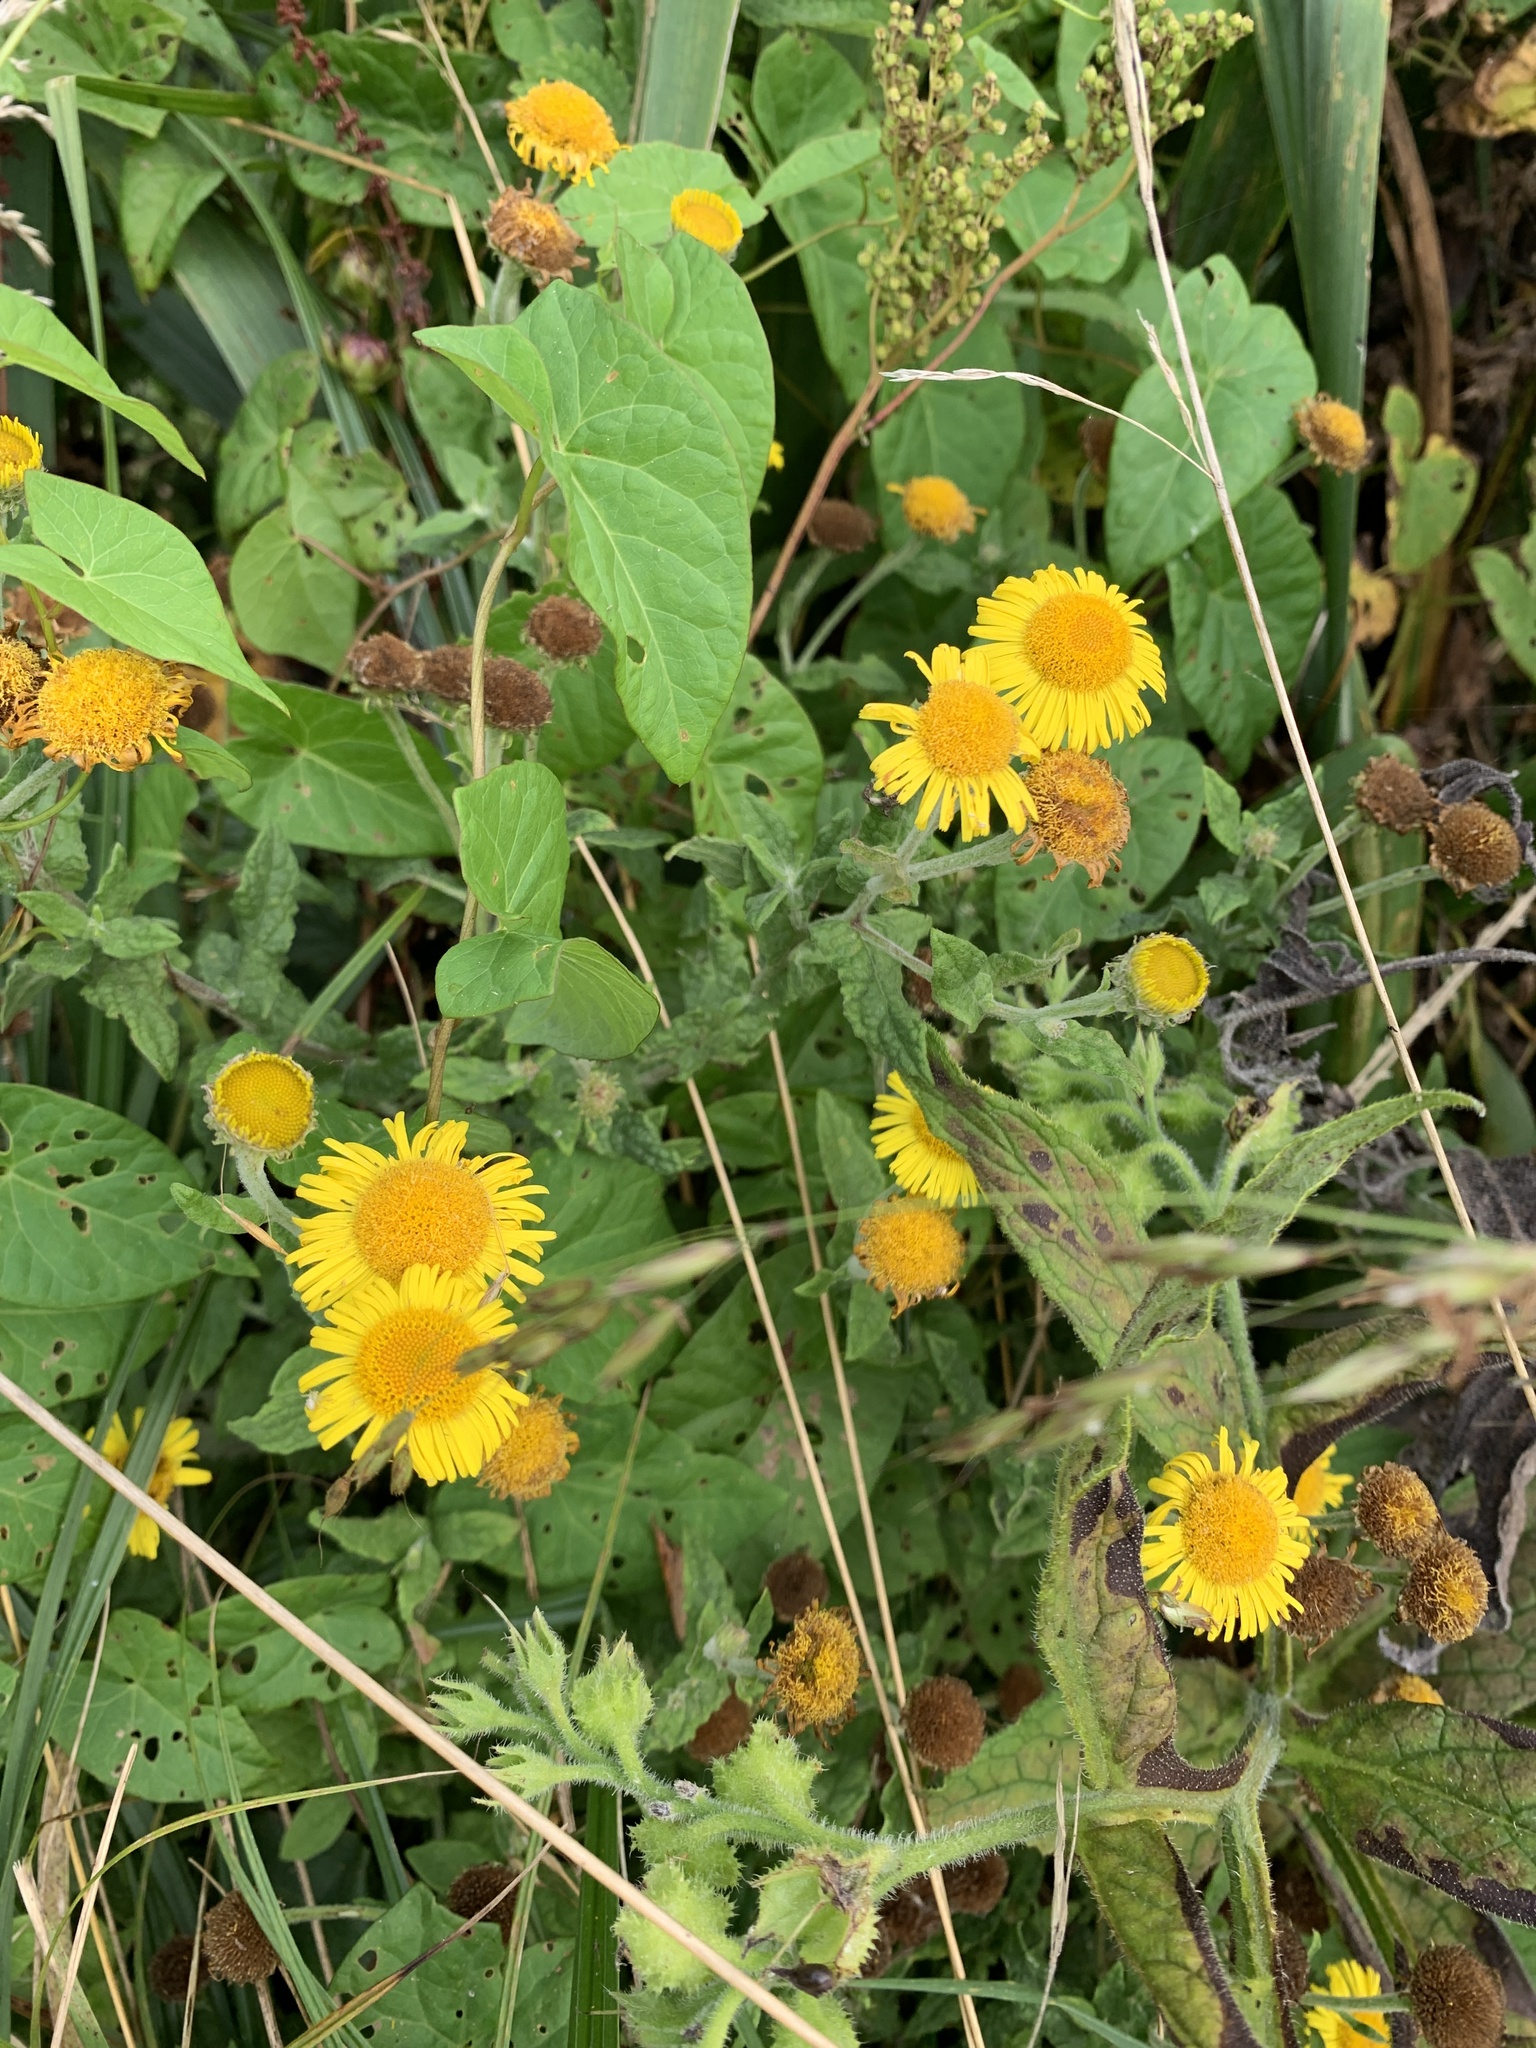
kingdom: Plantae
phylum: Tracheophyta
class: Magnoliopsida
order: Asterales
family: Asteraceae
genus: Pulicaria
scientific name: Pulicaria dysenterica
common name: Common fleabane
